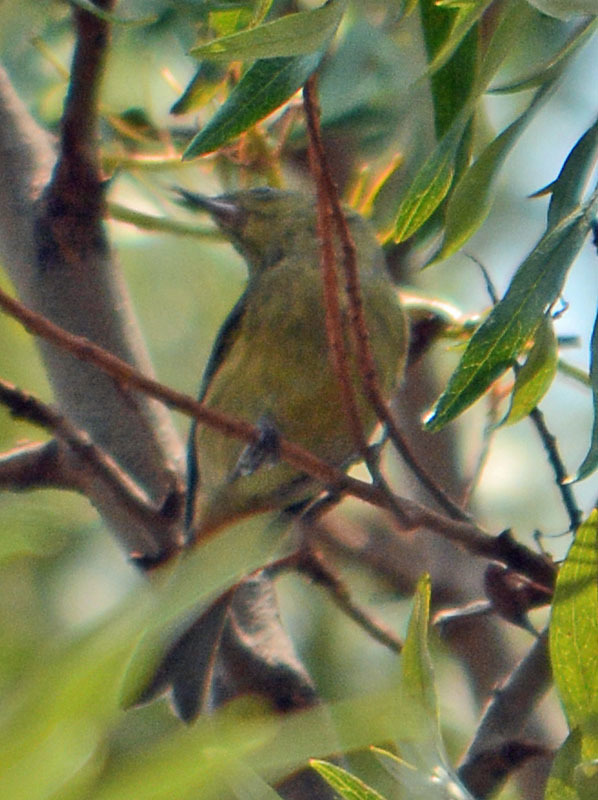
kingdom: Animalia
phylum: Chordata
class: Aves
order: Passeriformes
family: Thraupidae
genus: Diglossa
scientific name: Diglossa baritula
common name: Cinnamon-bellied flowerpiercer
